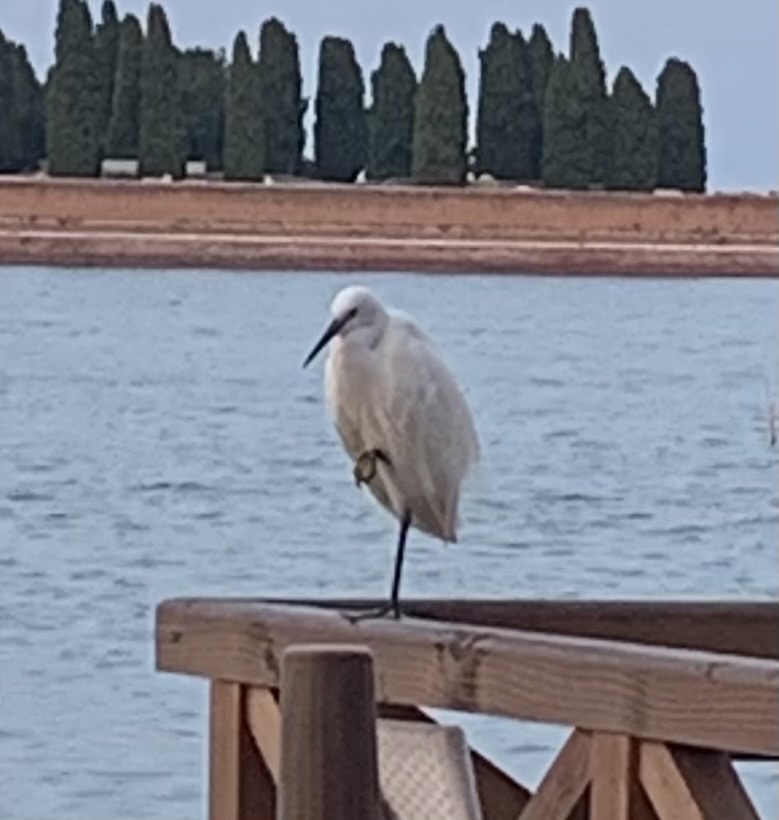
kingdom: Animalia
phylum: Chordata
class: Aves
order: Pelecaniformes
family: Ardeidae
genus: Egretta
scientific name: Egretta garzetta
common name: Little egret
